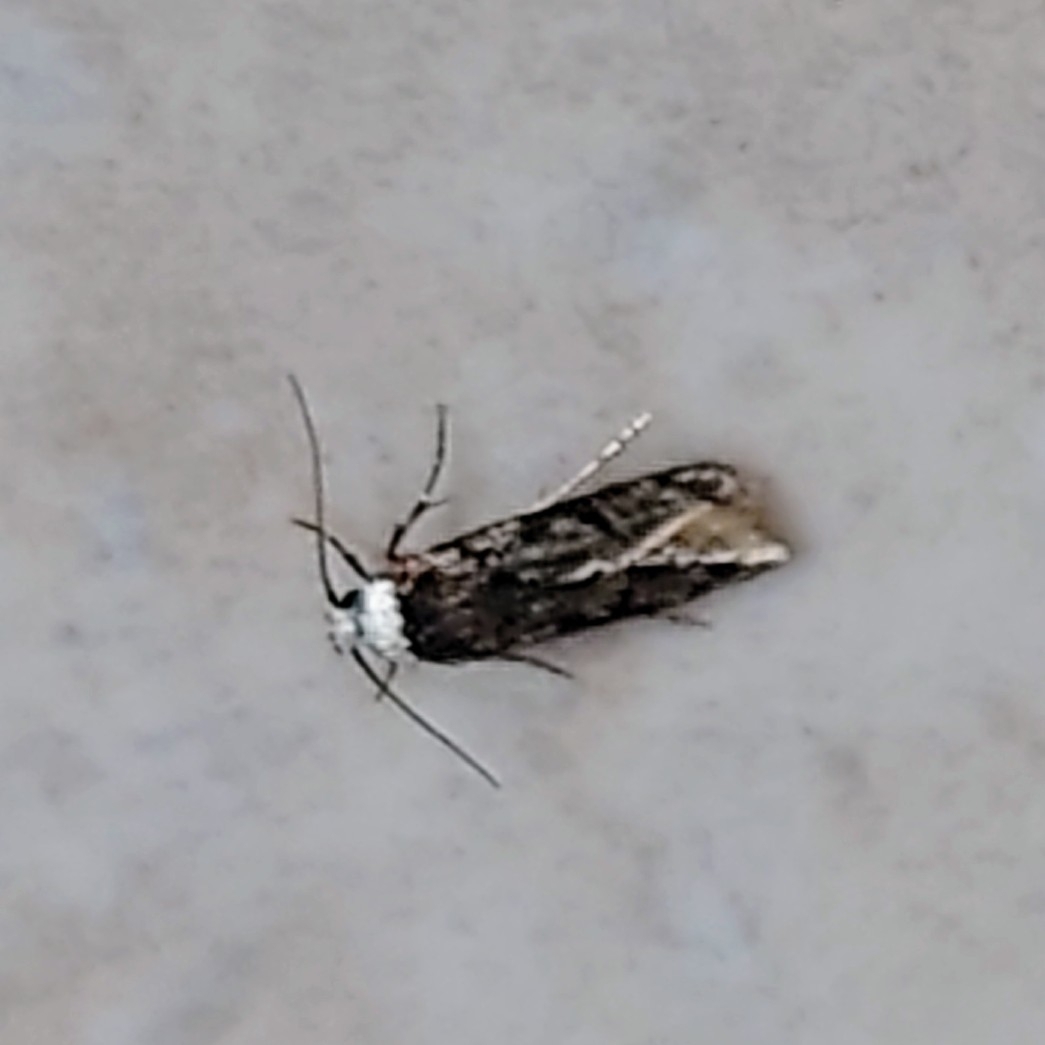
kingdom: Animalia
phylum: Arthropoda
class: Insecta
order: Lepidoptera
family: Oecophoridae
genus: Endrosis
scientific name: Endrosis sarcitrella
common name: White-shouldered house moth
